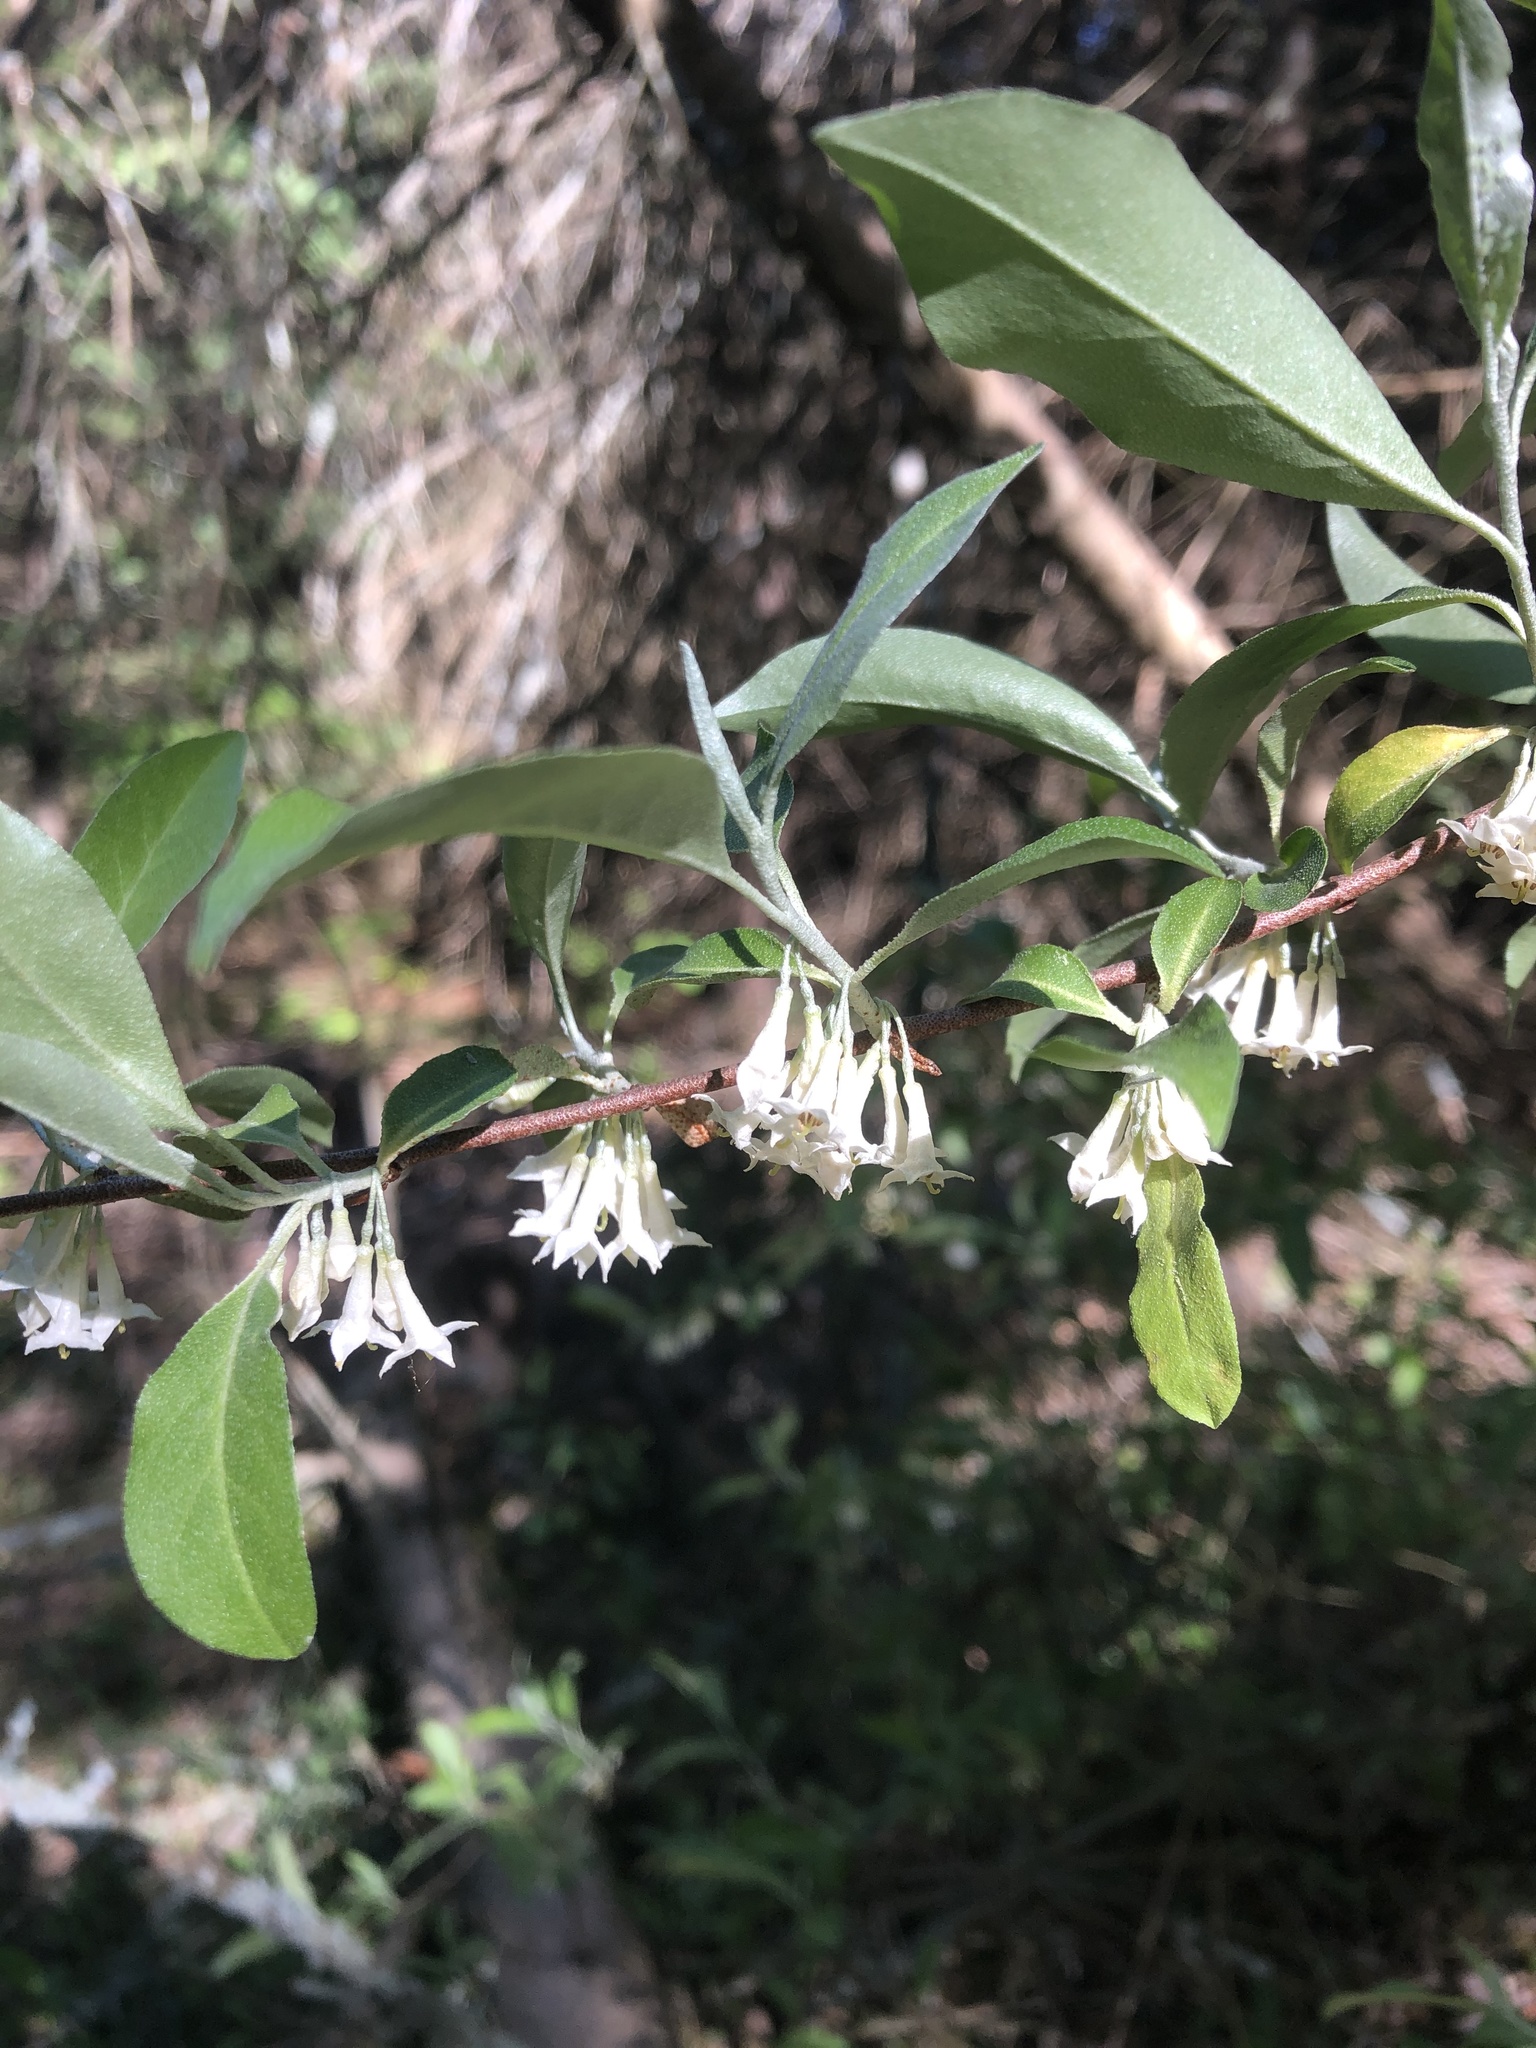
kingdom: Plantae
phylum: Tracheophyta
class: Magnoliopsida
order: Rosales
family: Elaeagnaceae
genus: Elaeagnus
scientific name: Elaeagnus umbellata
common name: Autumn olive
